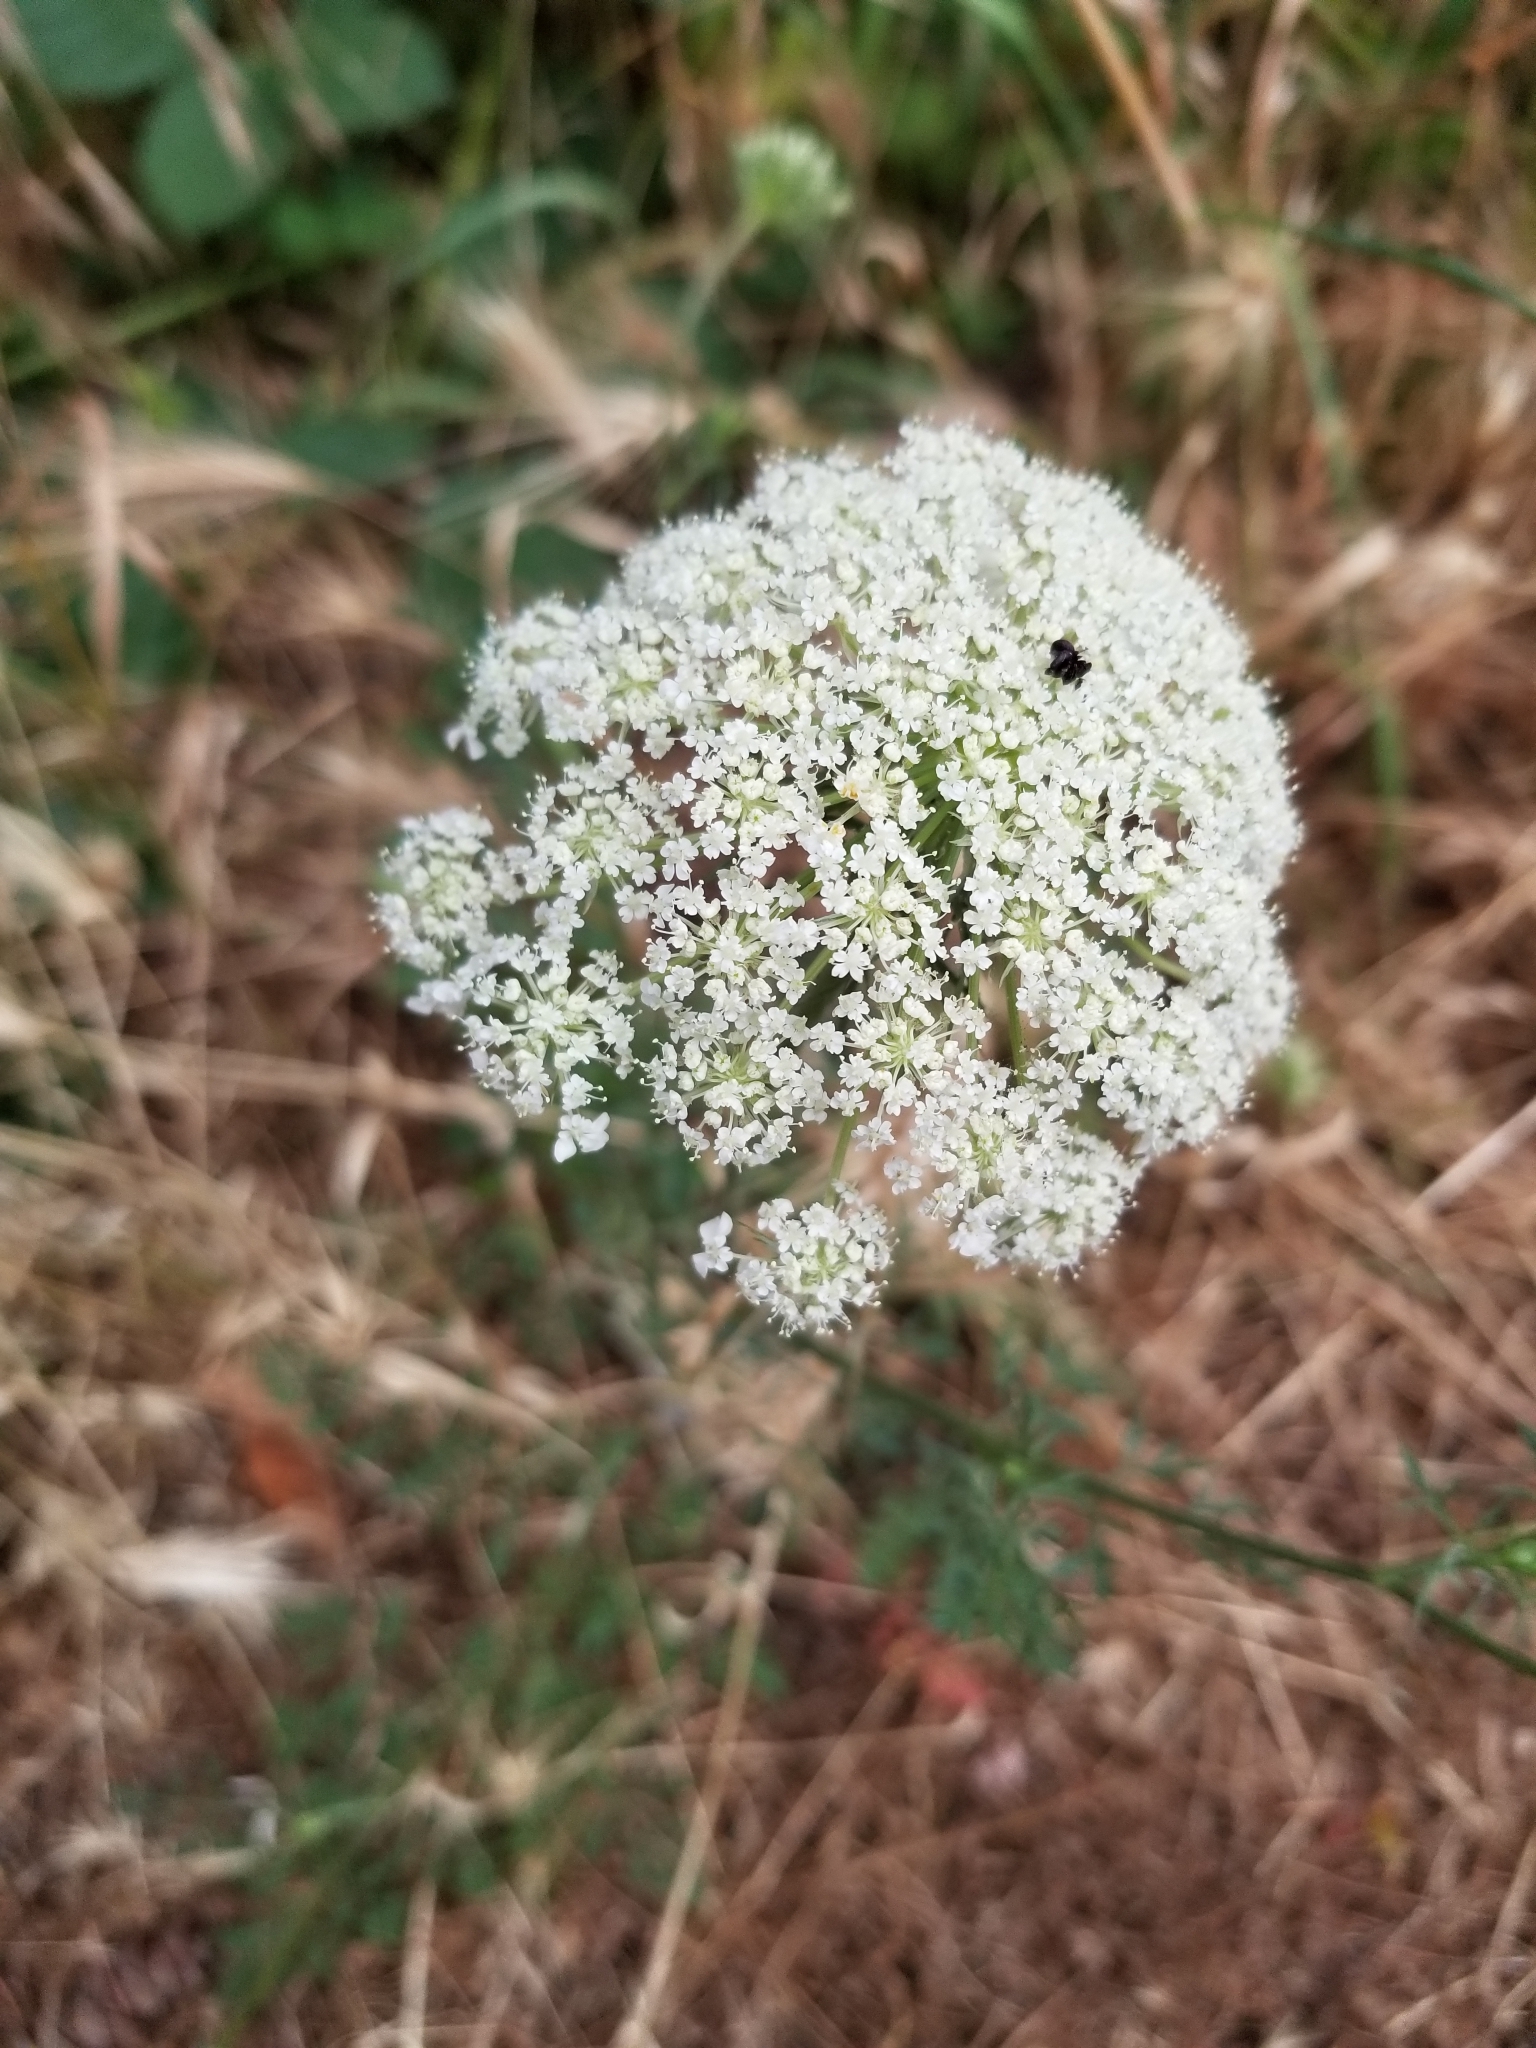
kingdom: Plantae
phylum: Tracheophyta
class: Magnoliopsida
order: Apiales
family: Apiaceae
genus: Daucus
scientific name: Daucus carota
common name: Wild carrot
